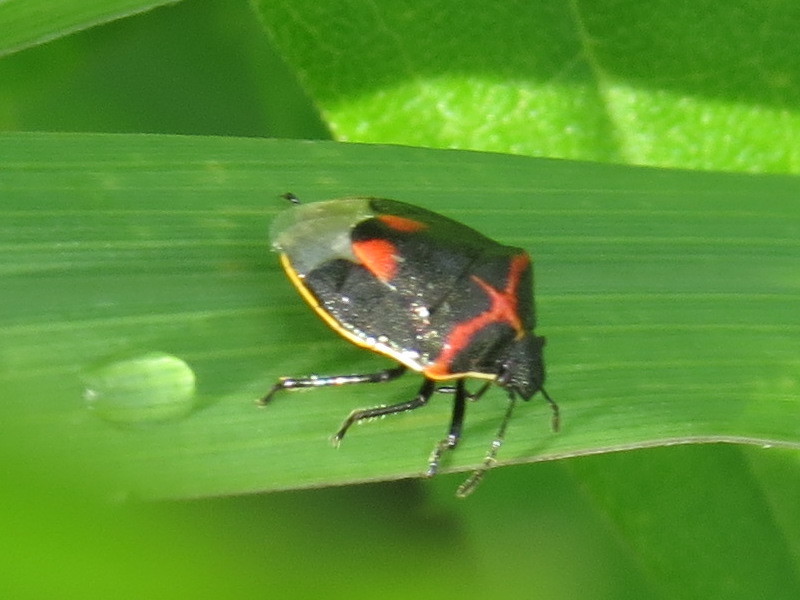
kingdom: Animalia
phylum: Arthropoda
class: Insecta
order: Hemiptera
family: Pentatomidae
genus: Cosmopepla
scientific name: Cosmopepla lintneriana
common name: Twice-stabbed stink bug
